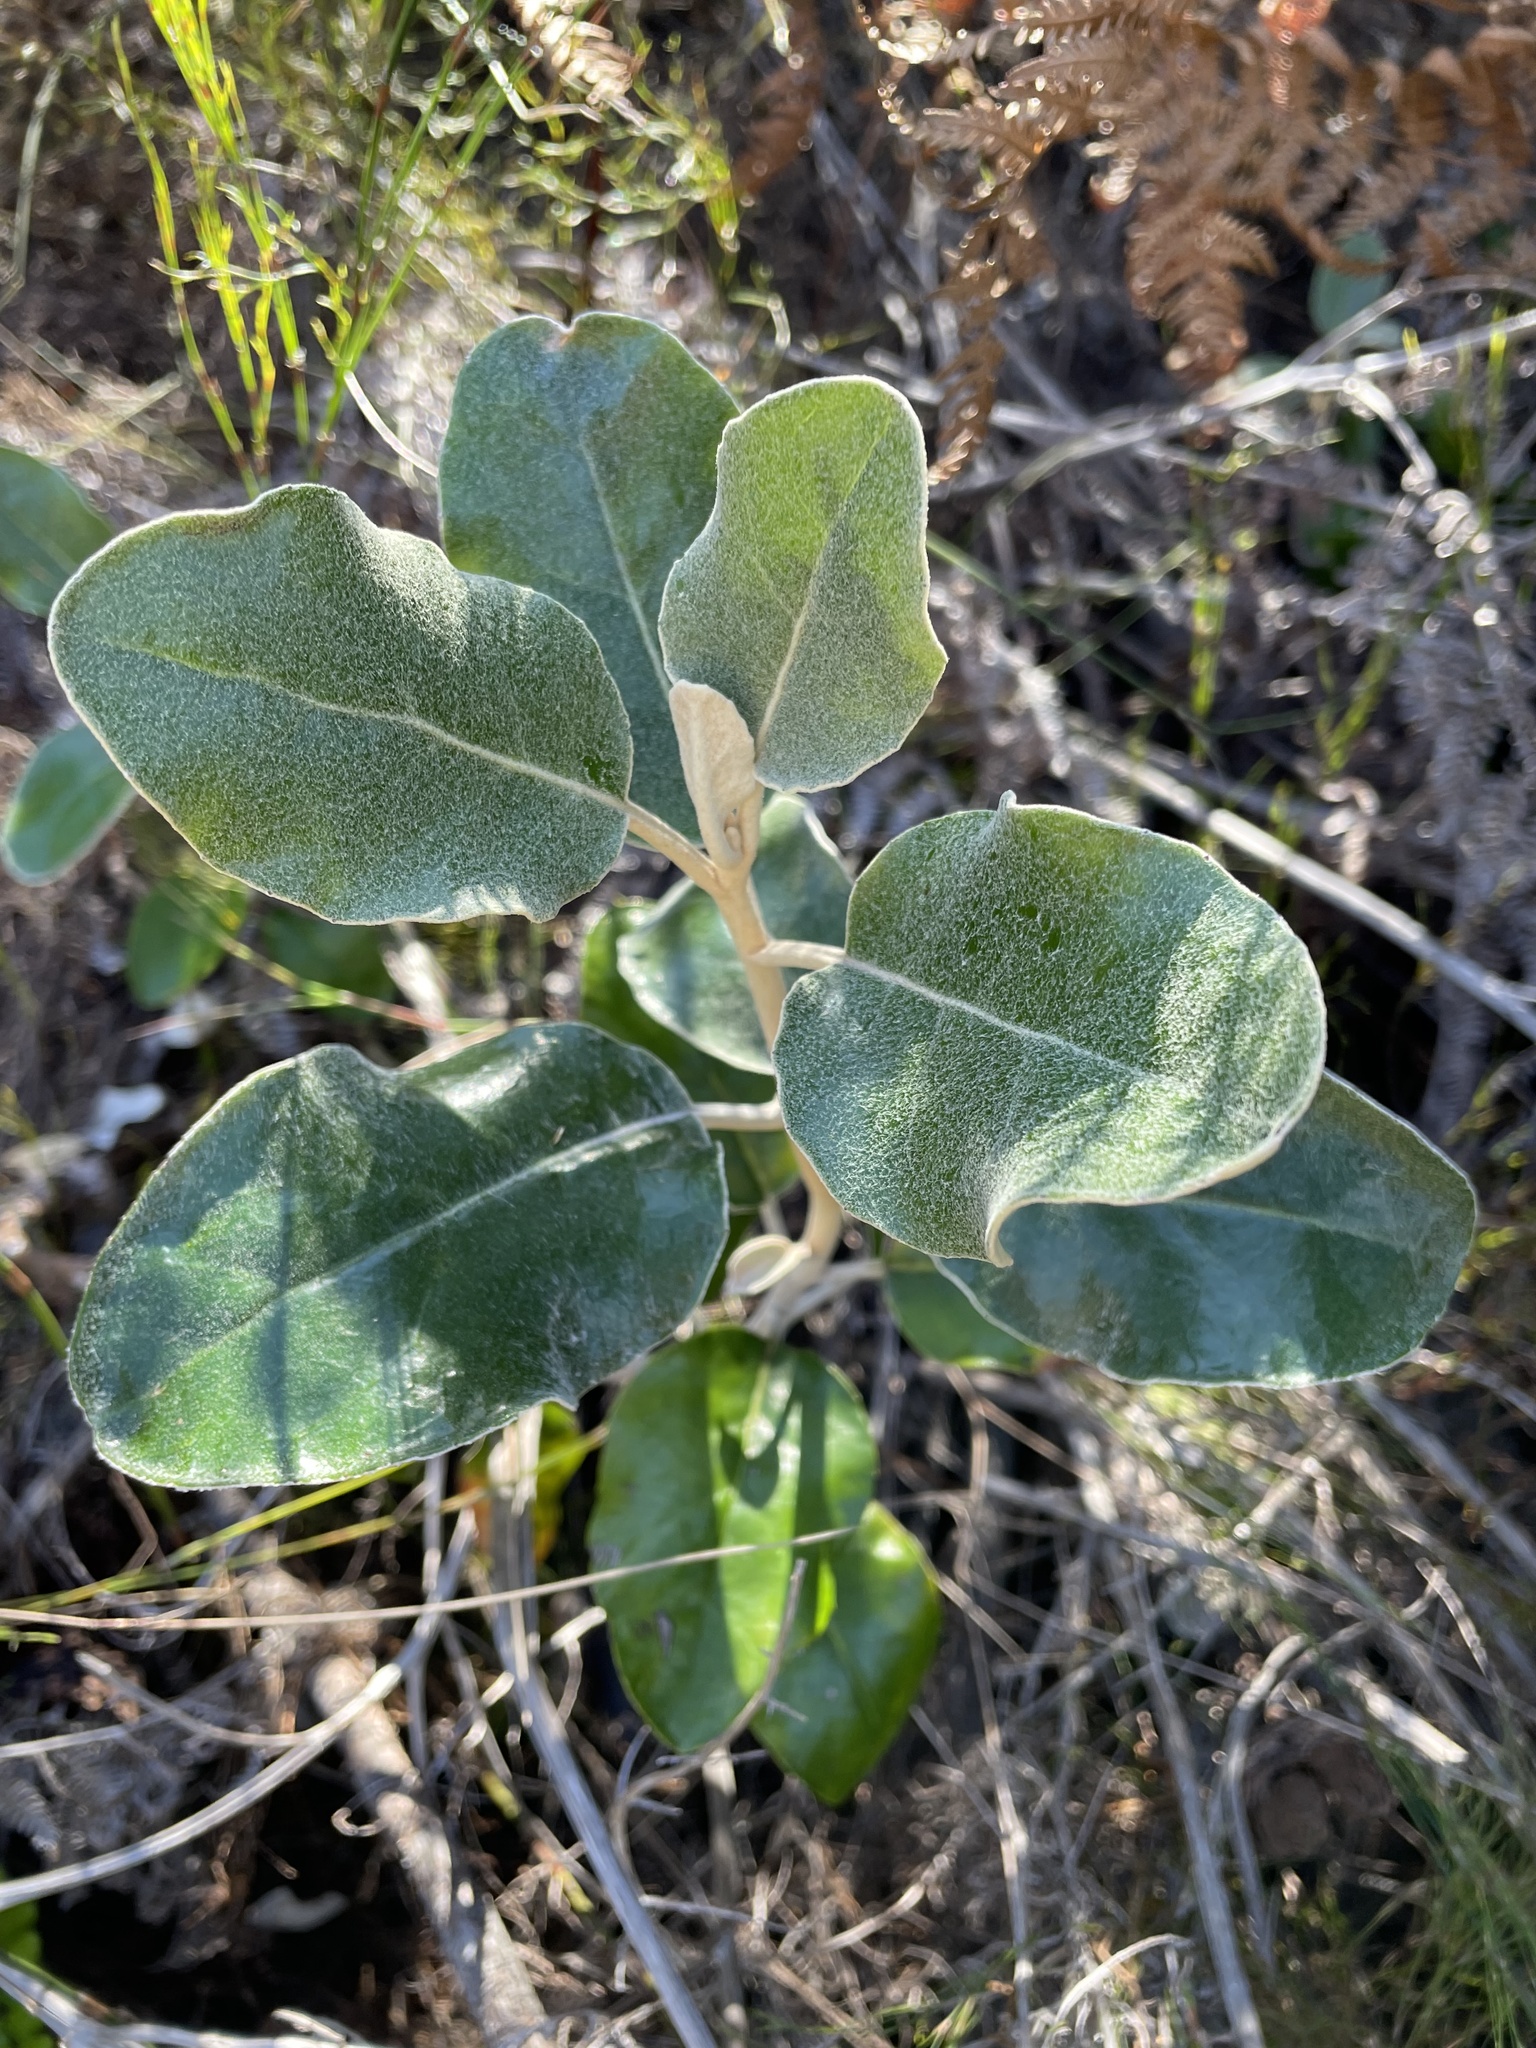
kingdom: Plantae
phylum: Tracheophyta
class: Magnoliopsida
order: Asterales
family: Asteraceae
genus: Capelio
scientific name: Capelio tabularis
